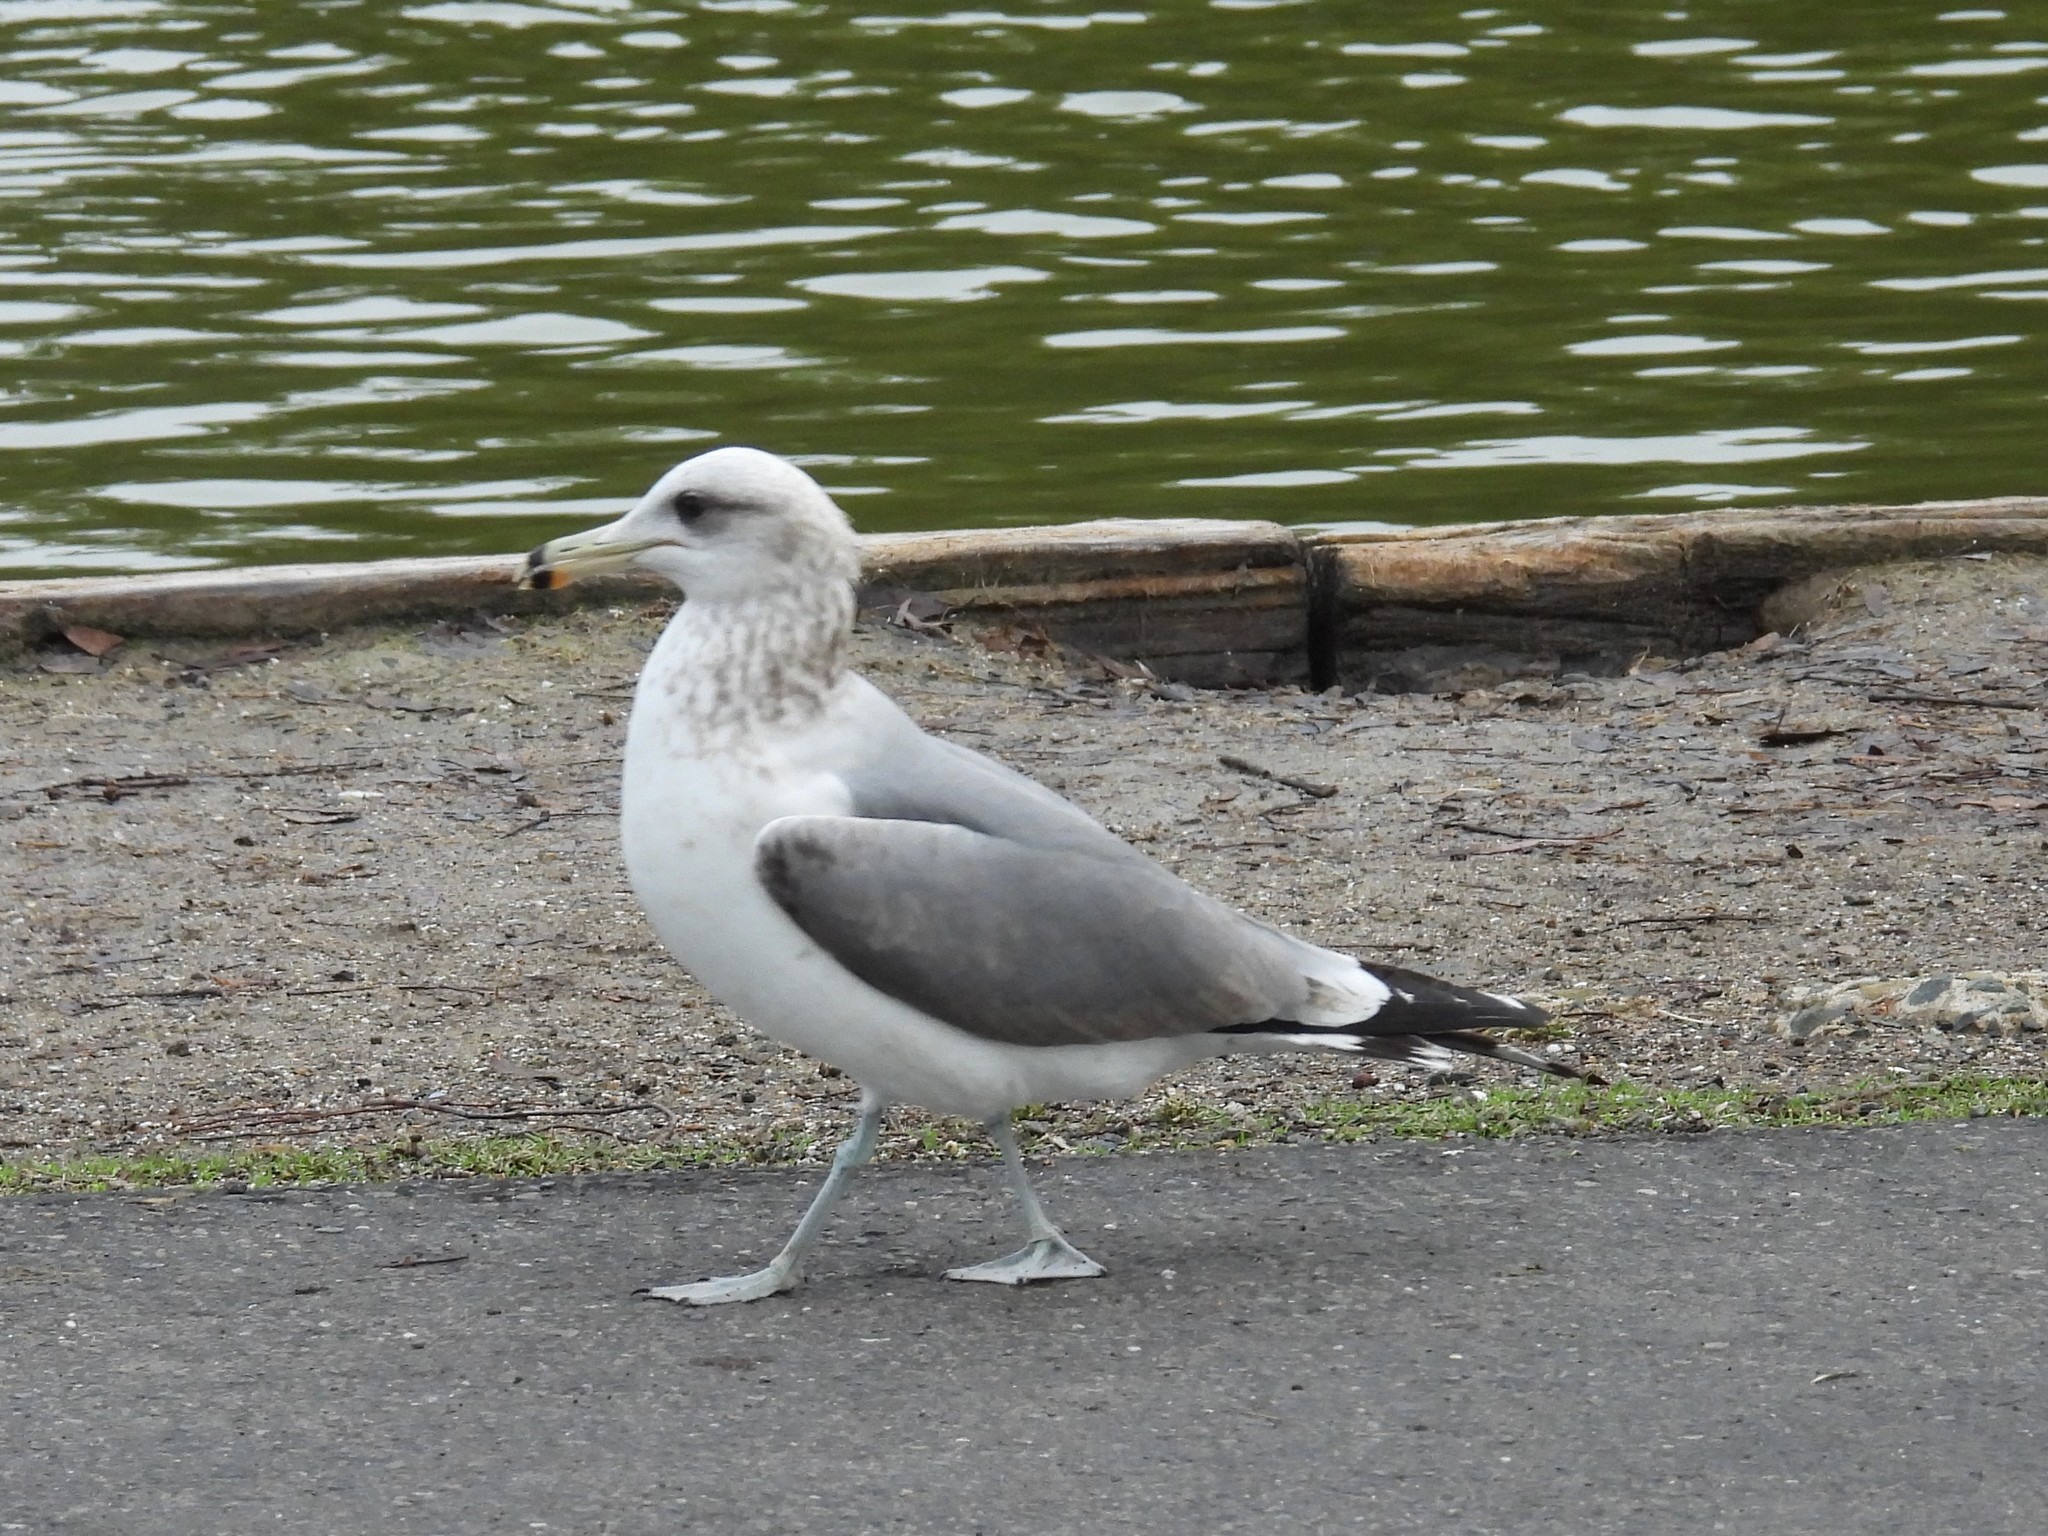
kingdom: Animalia
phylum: Chordata
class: Aves
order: Charadriiformes
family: Laridae
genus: Larus
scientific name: Larus californicus
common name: California gull
